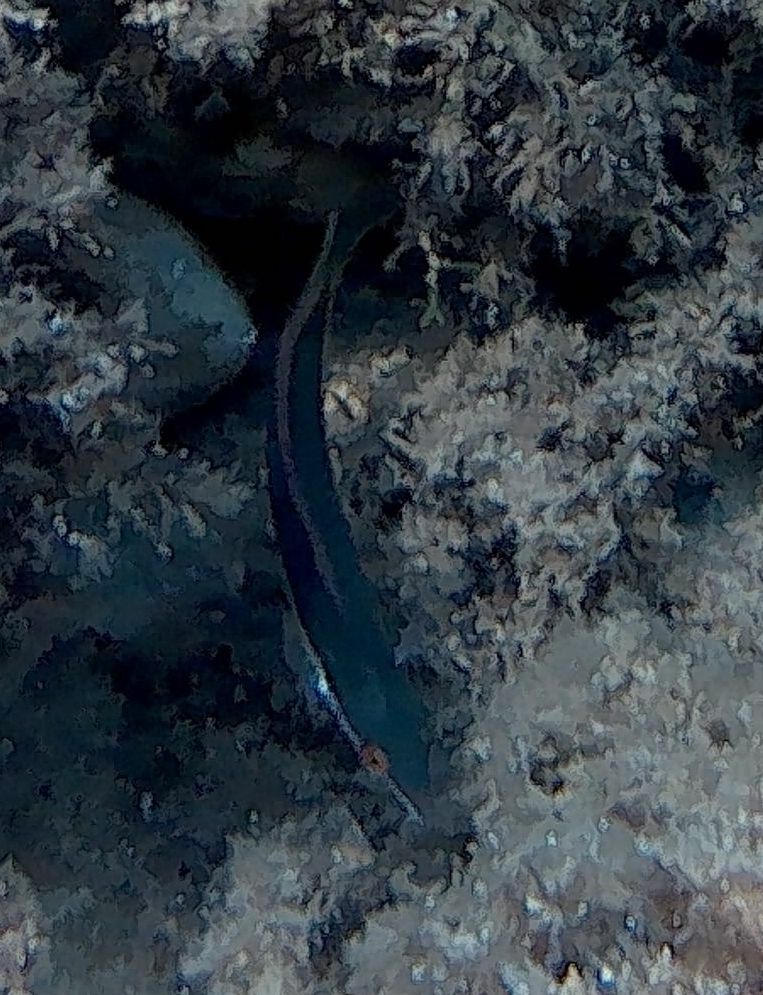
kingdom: Animalia
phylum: Chordata
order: Perciformes
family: Labridae
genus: Coris
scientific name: Coris julis
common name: Rainbow wrasse
